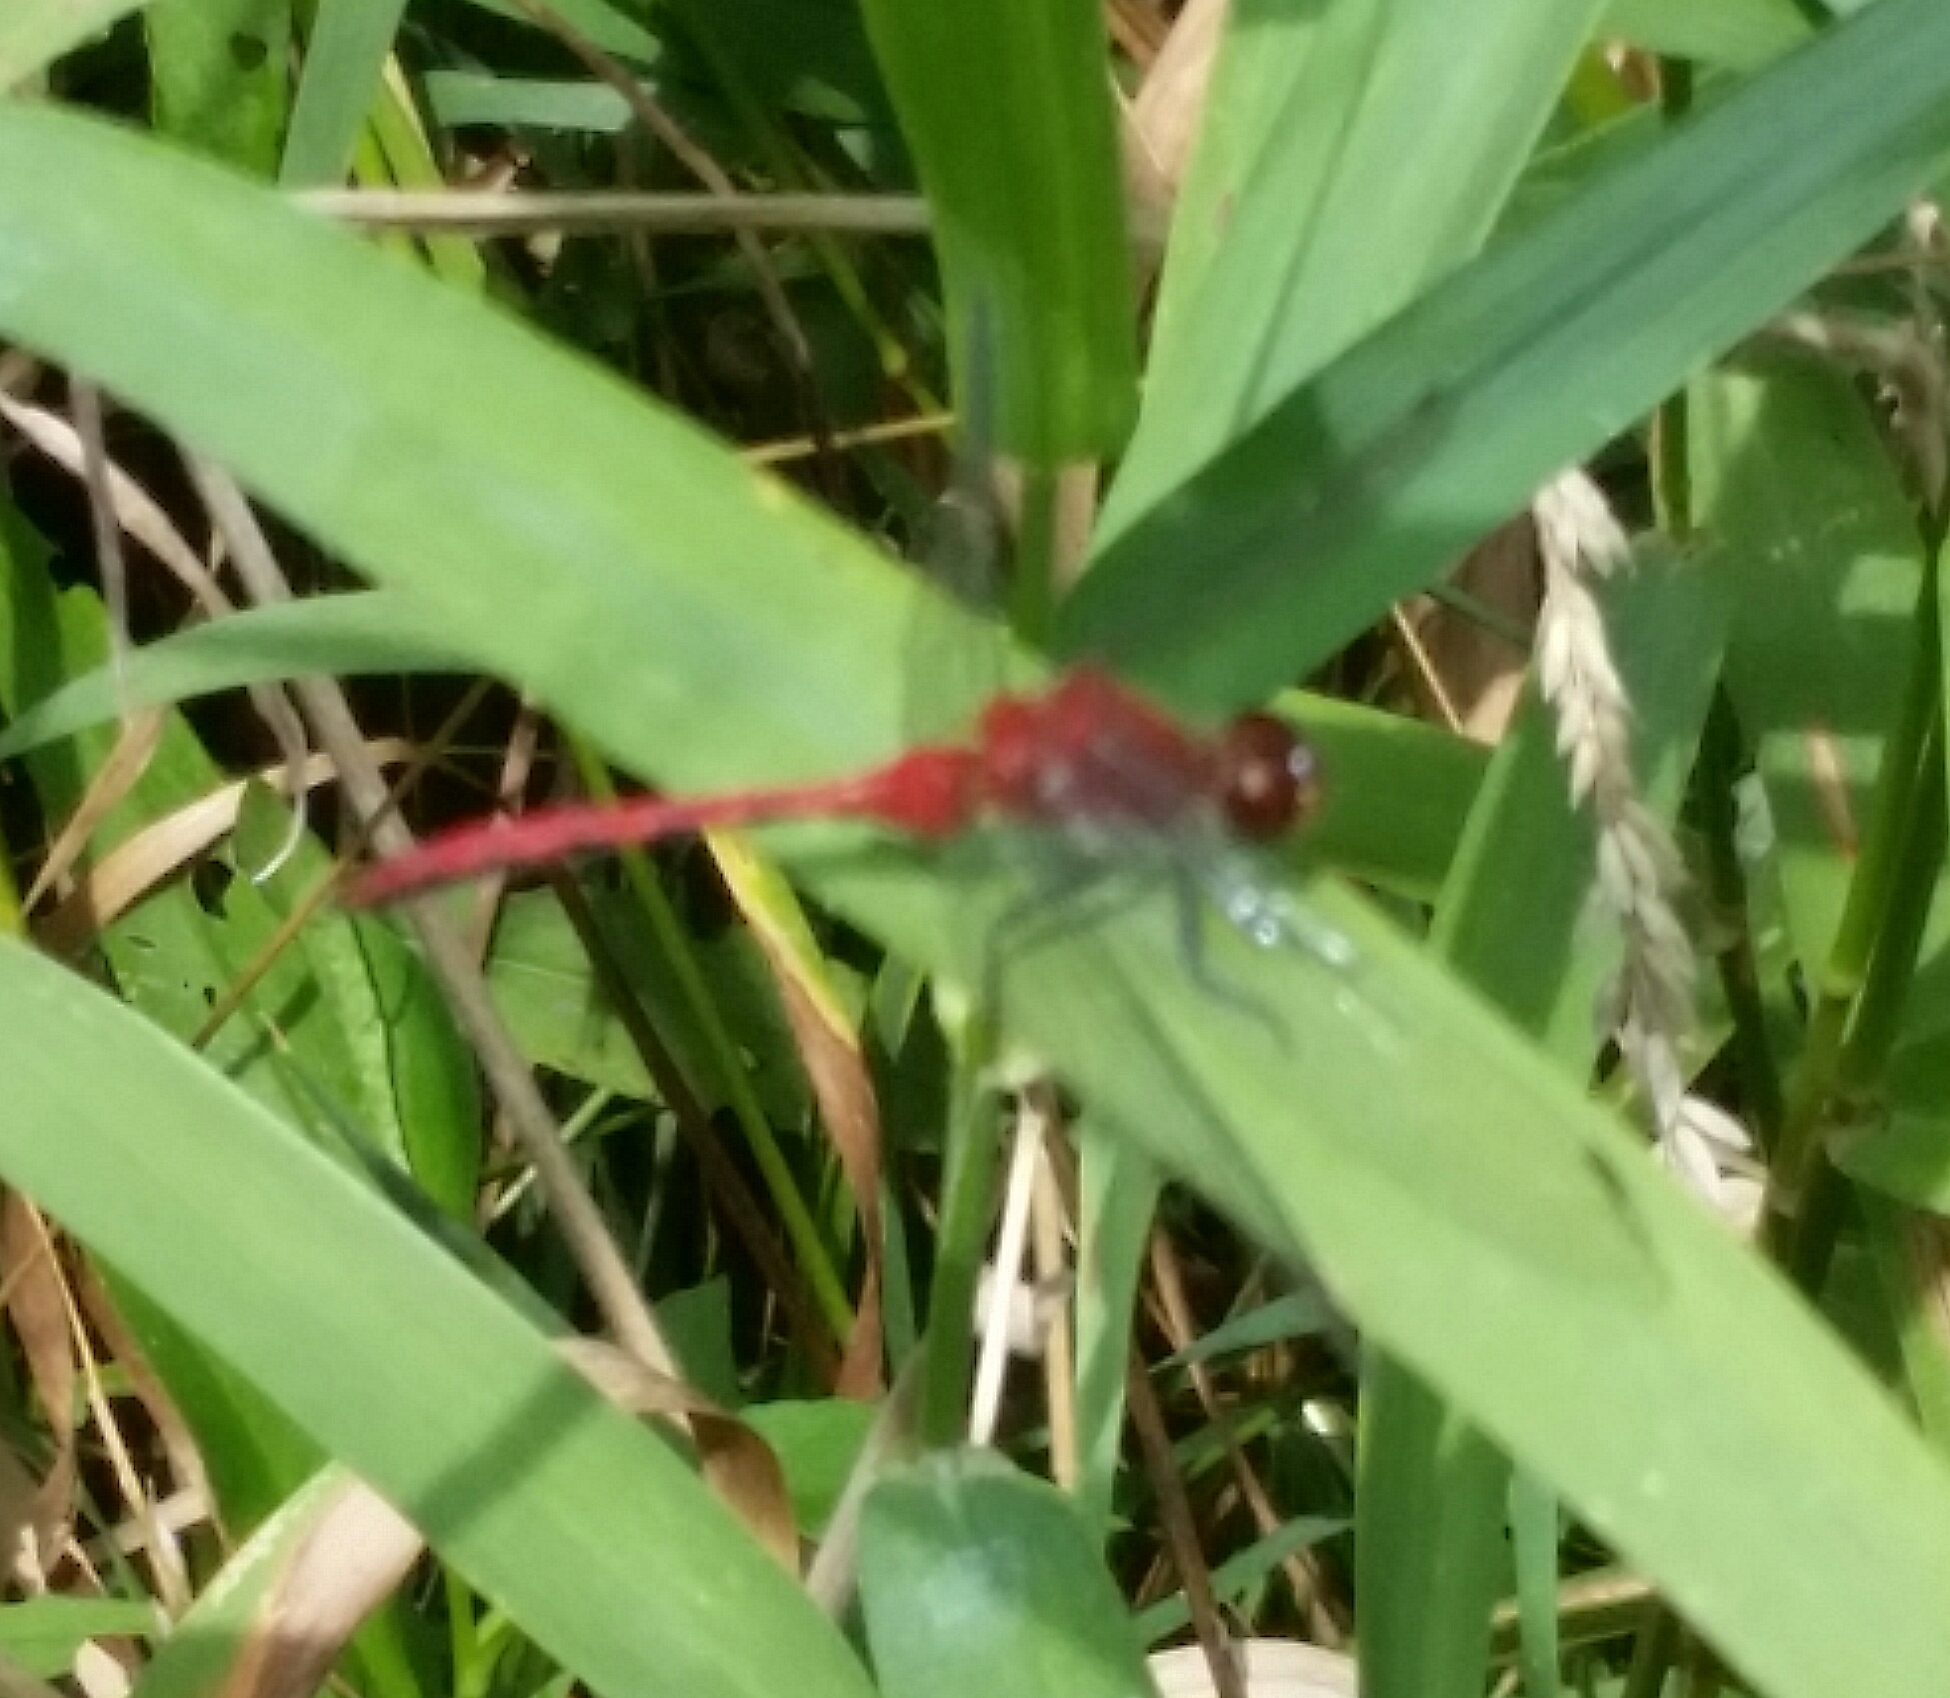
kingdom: Animalia
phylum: Arthropoda
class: Insecta
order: Odonata
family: Libellulidae
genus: Sympetrum
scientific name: Sympetrum
